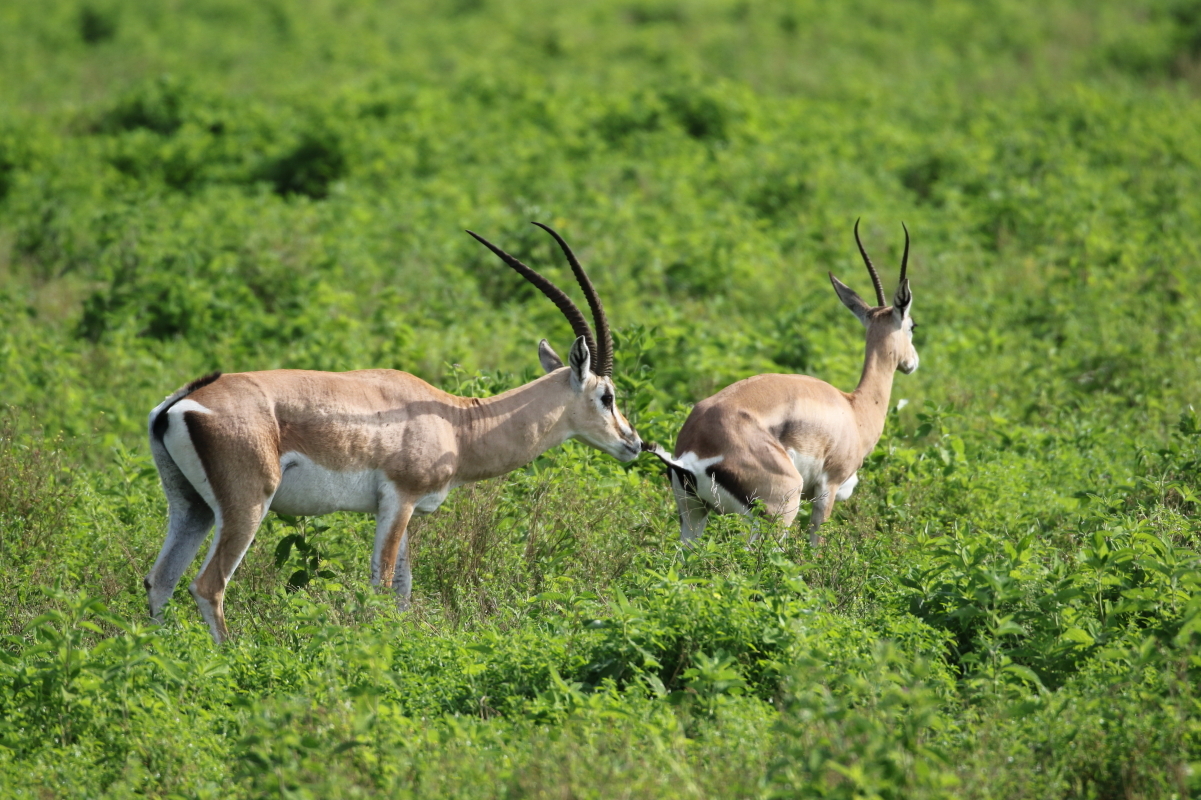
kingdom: Animalia
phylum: Chordata
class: Mammalia
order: Artiodactyla
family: Bovidae
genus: Nanger
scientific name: Nanger granti
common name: Grant's gazelle
